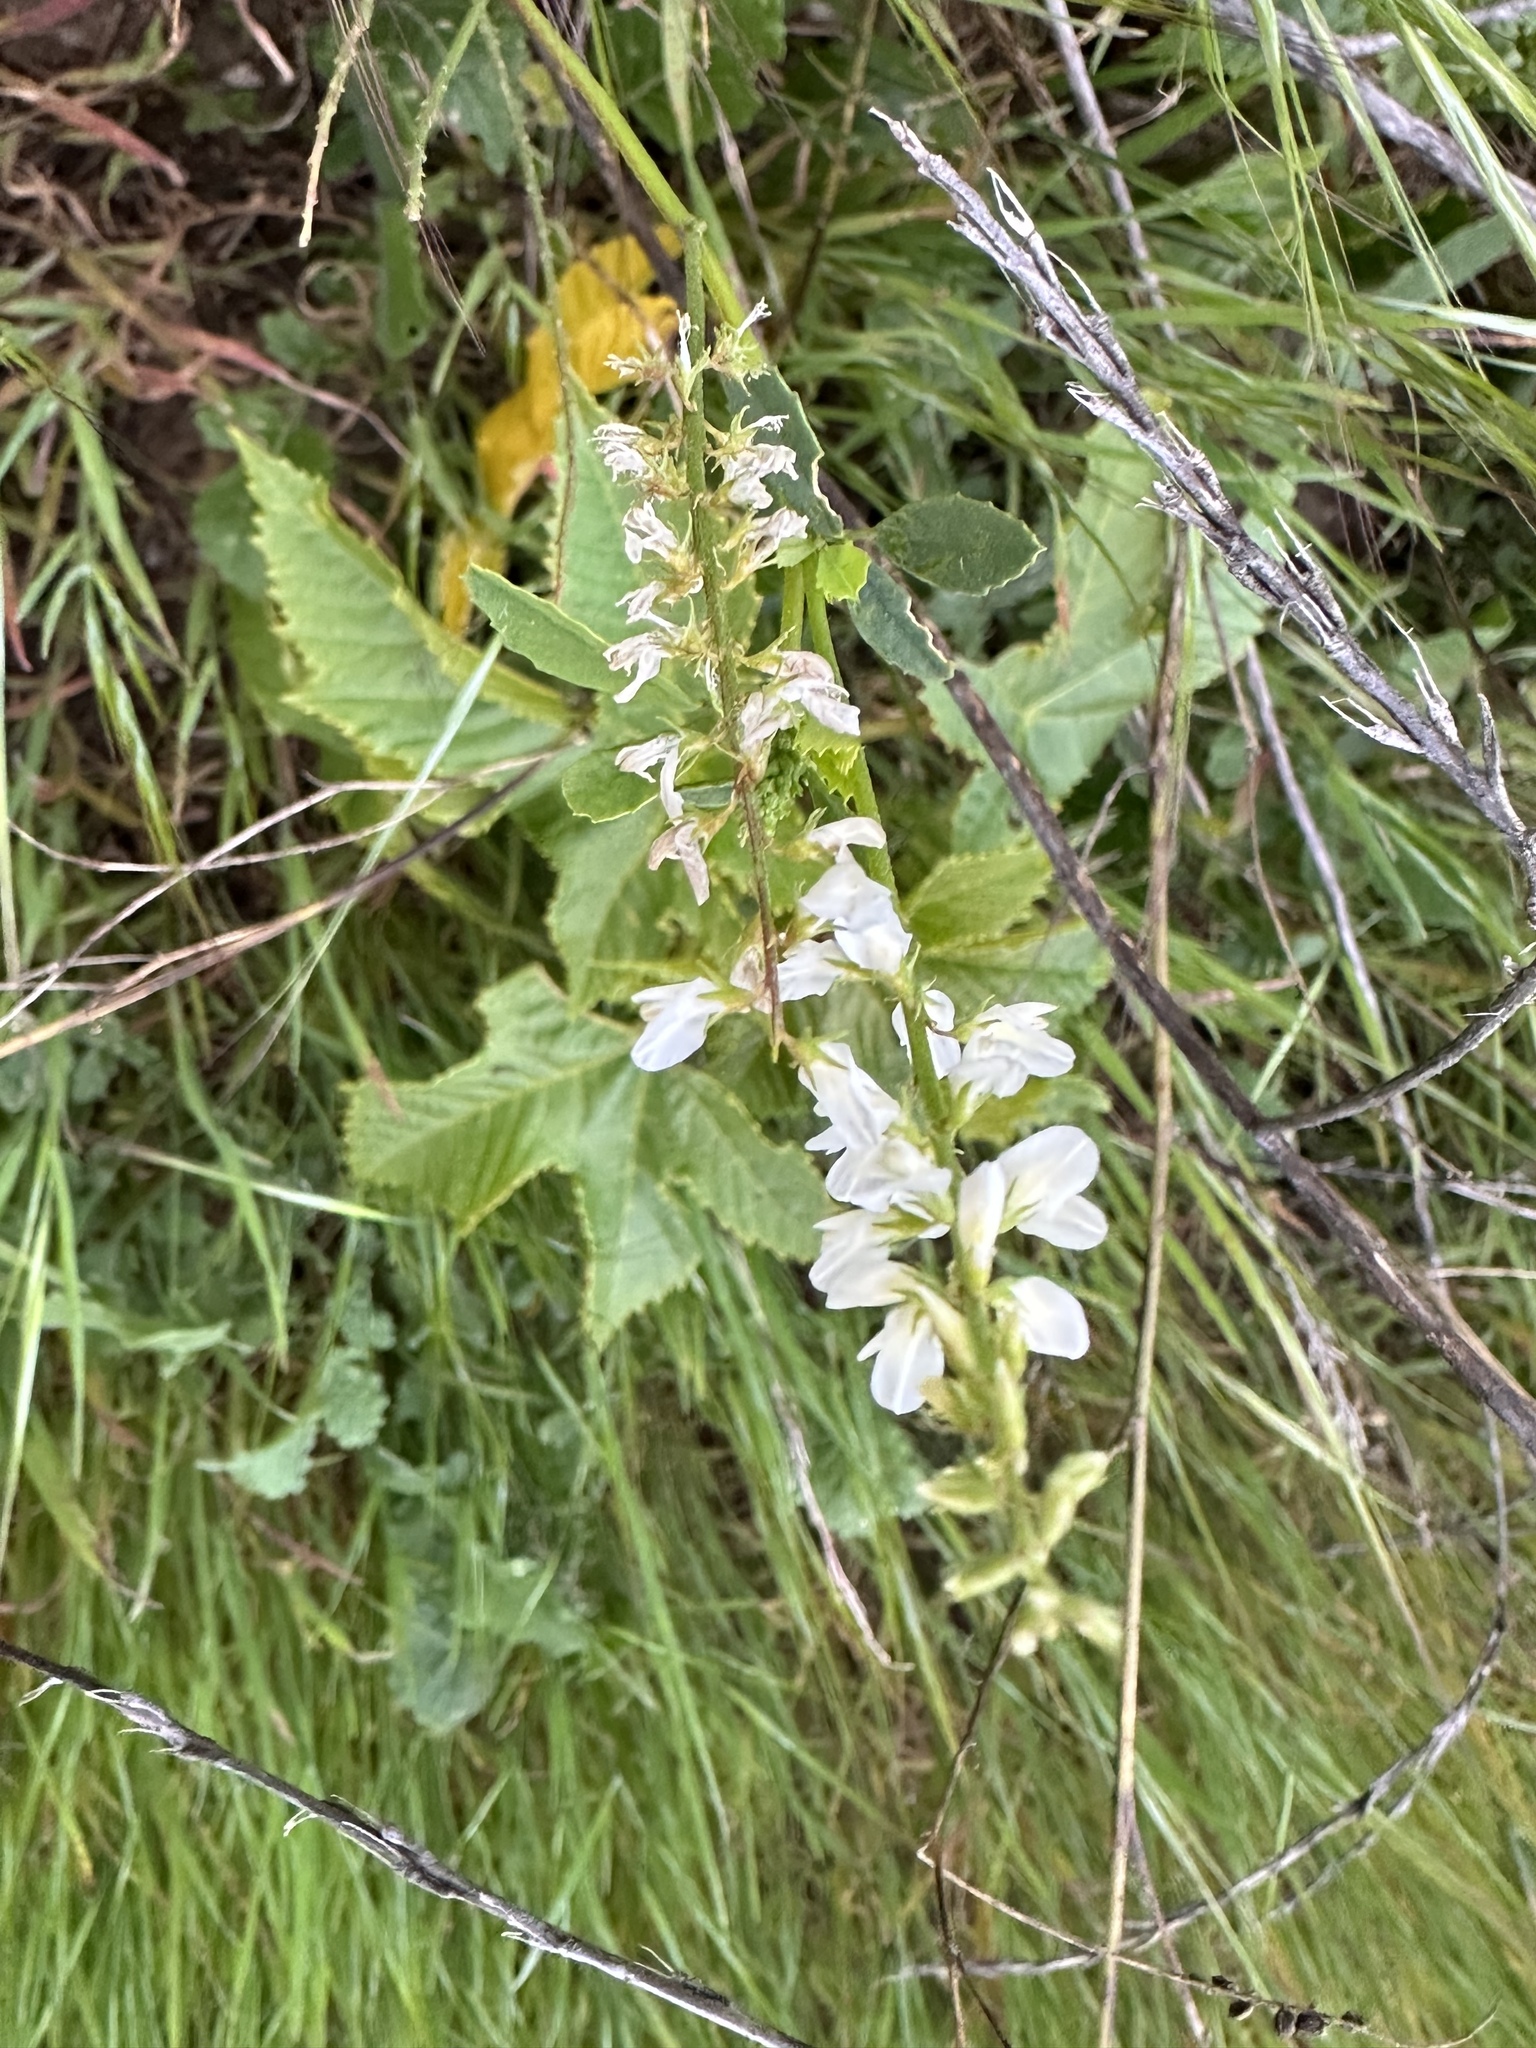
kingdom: Plantae
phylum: Tracheophyta
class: Magnoliopsida
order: Fabales
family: Fabaceae
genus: Melilotus
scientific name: Melilotus albus
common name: White melilot
